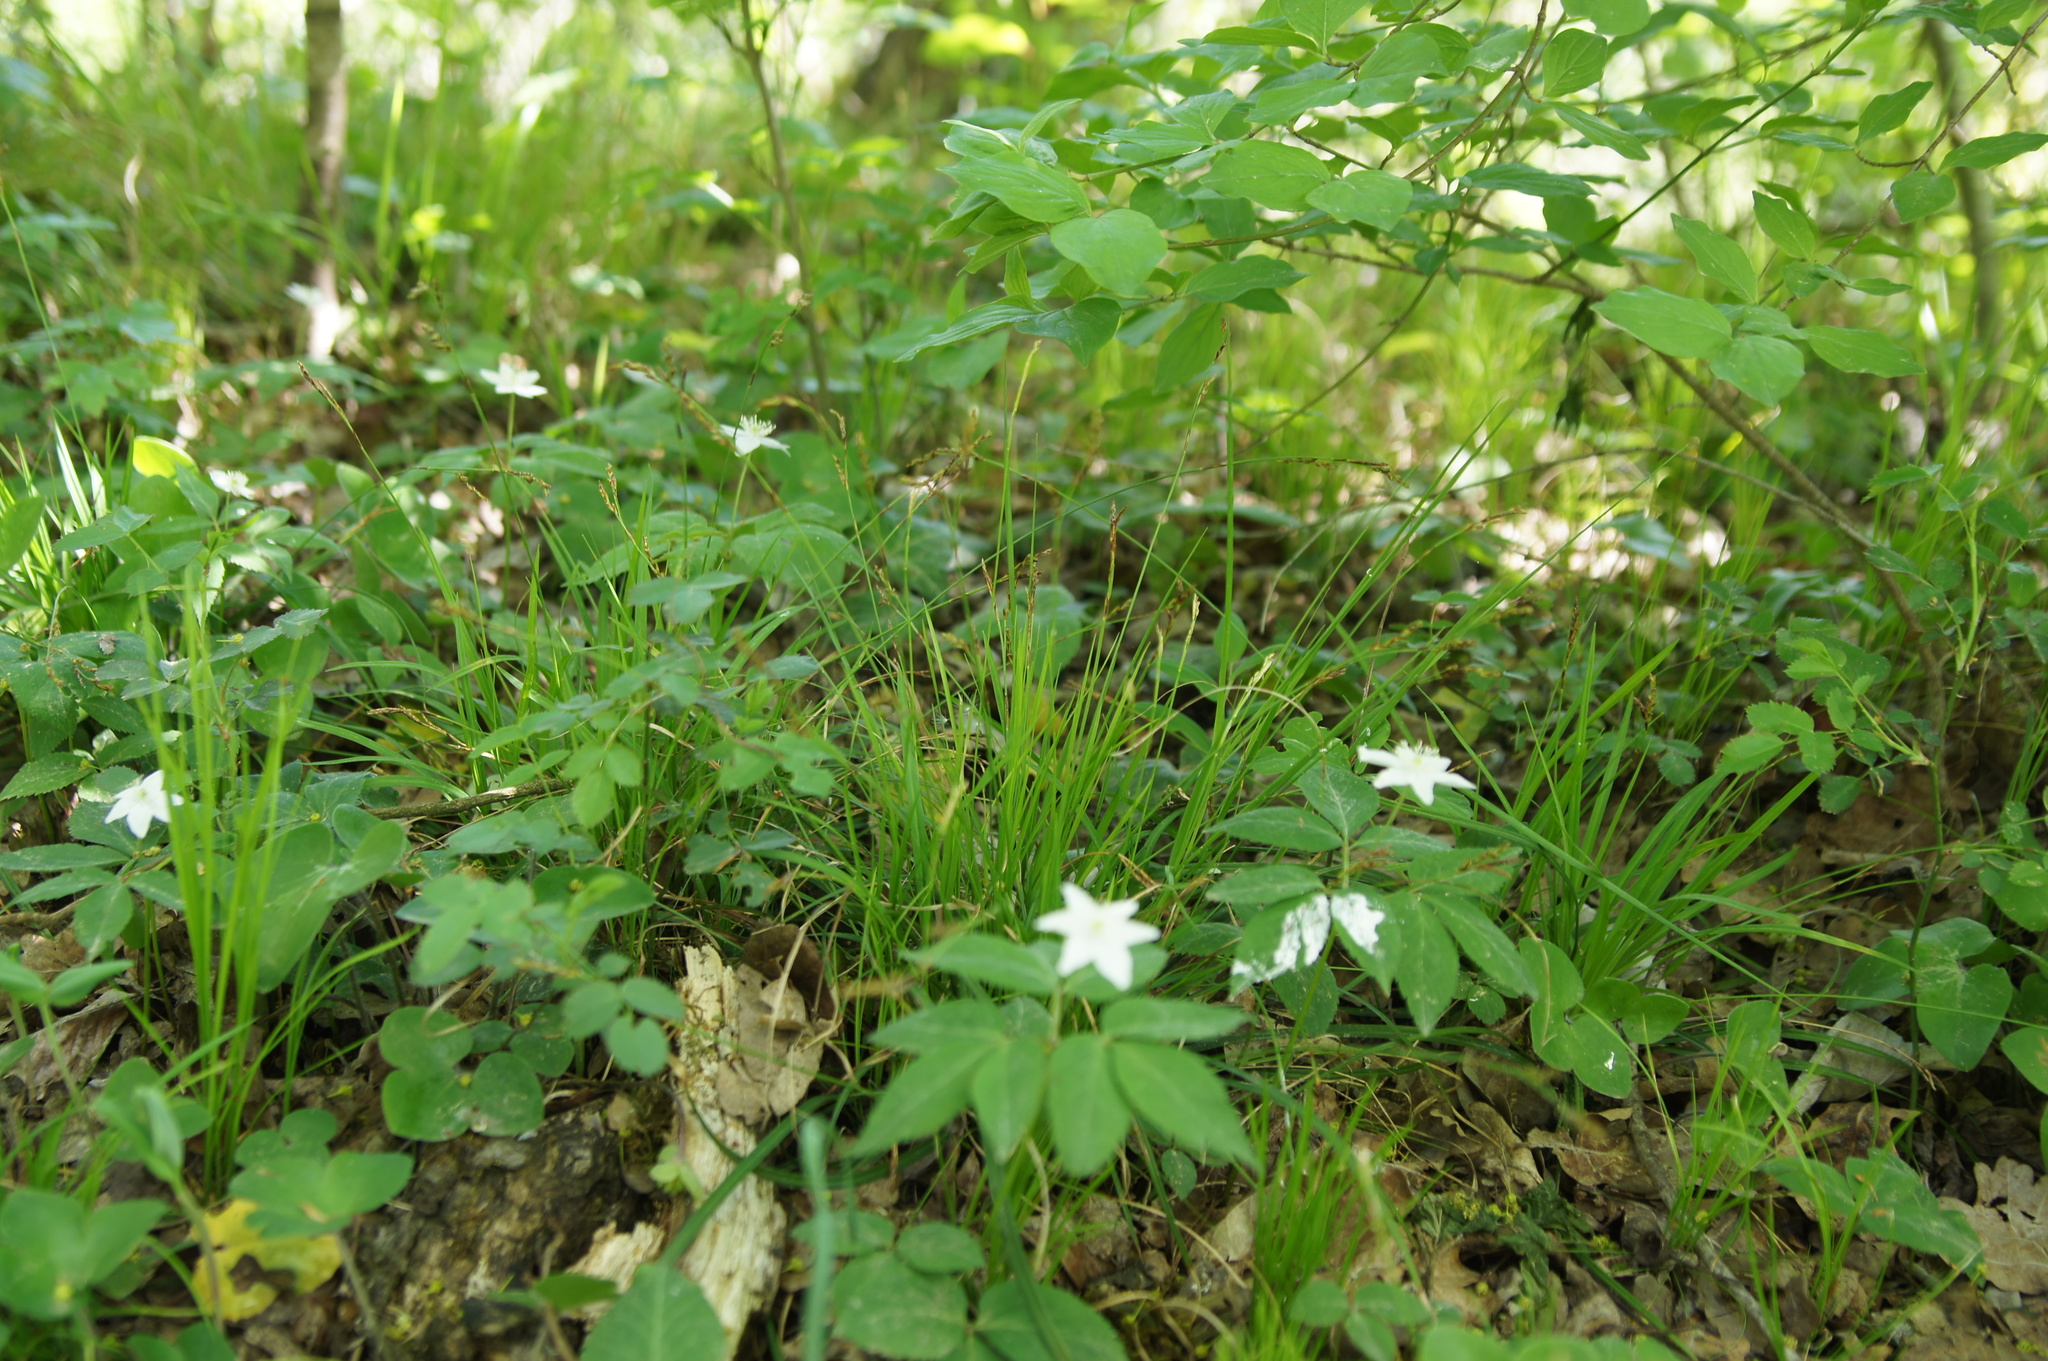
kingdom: Plantae
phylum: Tracheophyta
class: Liliopsida
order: Poales
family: Cyperaceae
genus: Carex
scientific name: Carex digitata
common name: Fingered sedge
